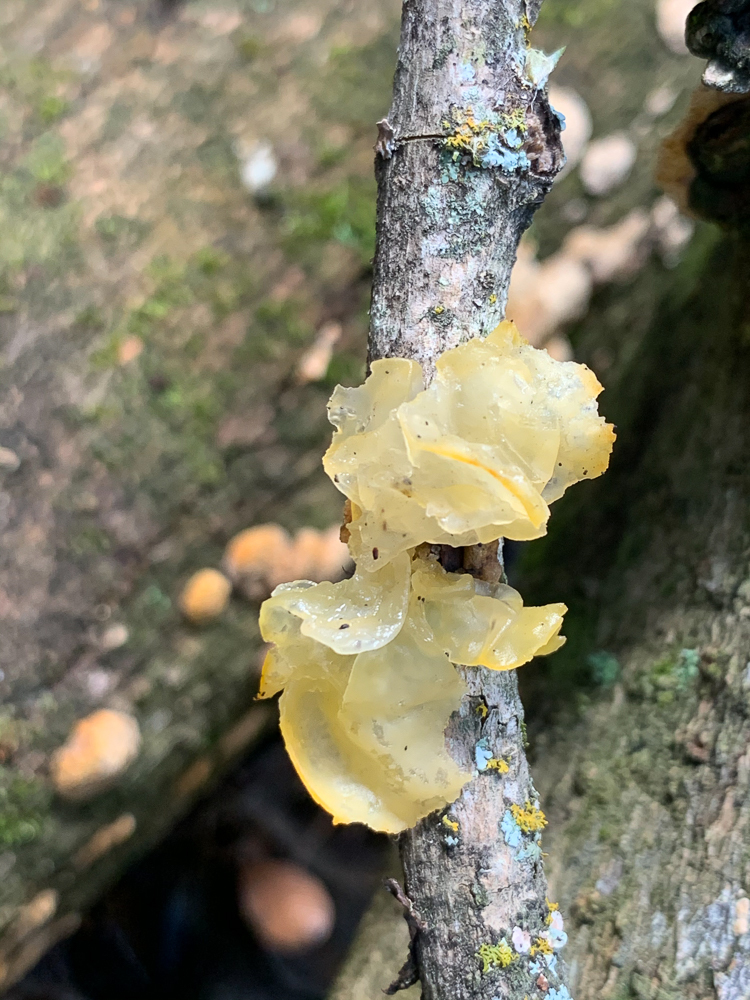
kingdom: Fungi
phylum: Basidiomycota
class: Tremellomycetes
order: Tremellales
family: Tremellaceae
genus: Tremella
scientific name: Tremella mesenterica
